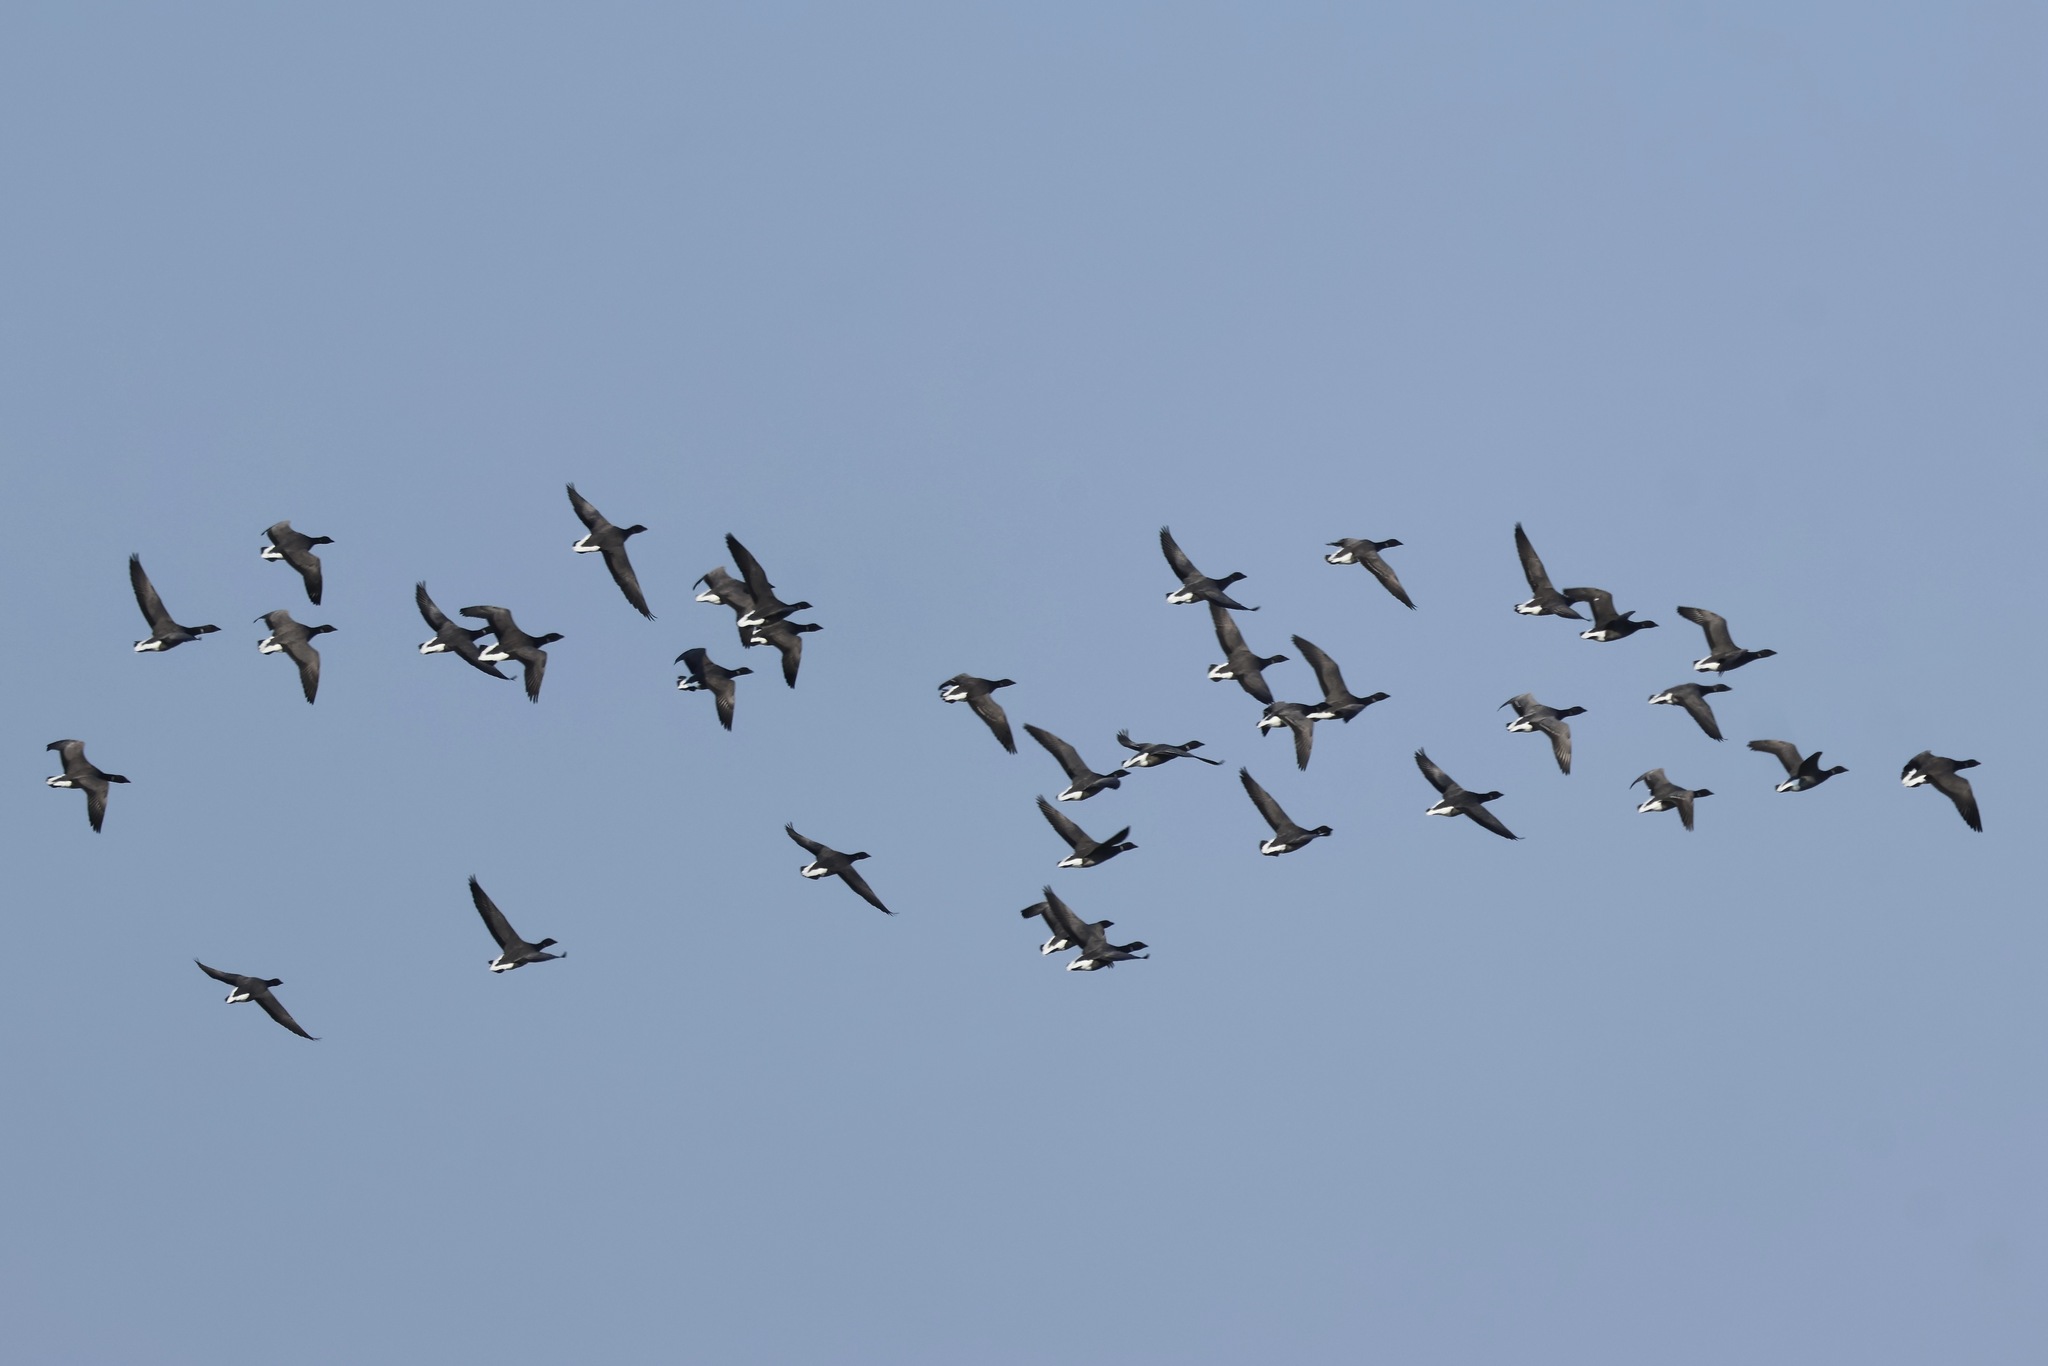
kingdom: Animalia
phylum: Chordata
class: Aves
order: Anseriformes
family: Anatidae
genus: Branta
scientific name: Branta bernicla
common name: Brant goose
